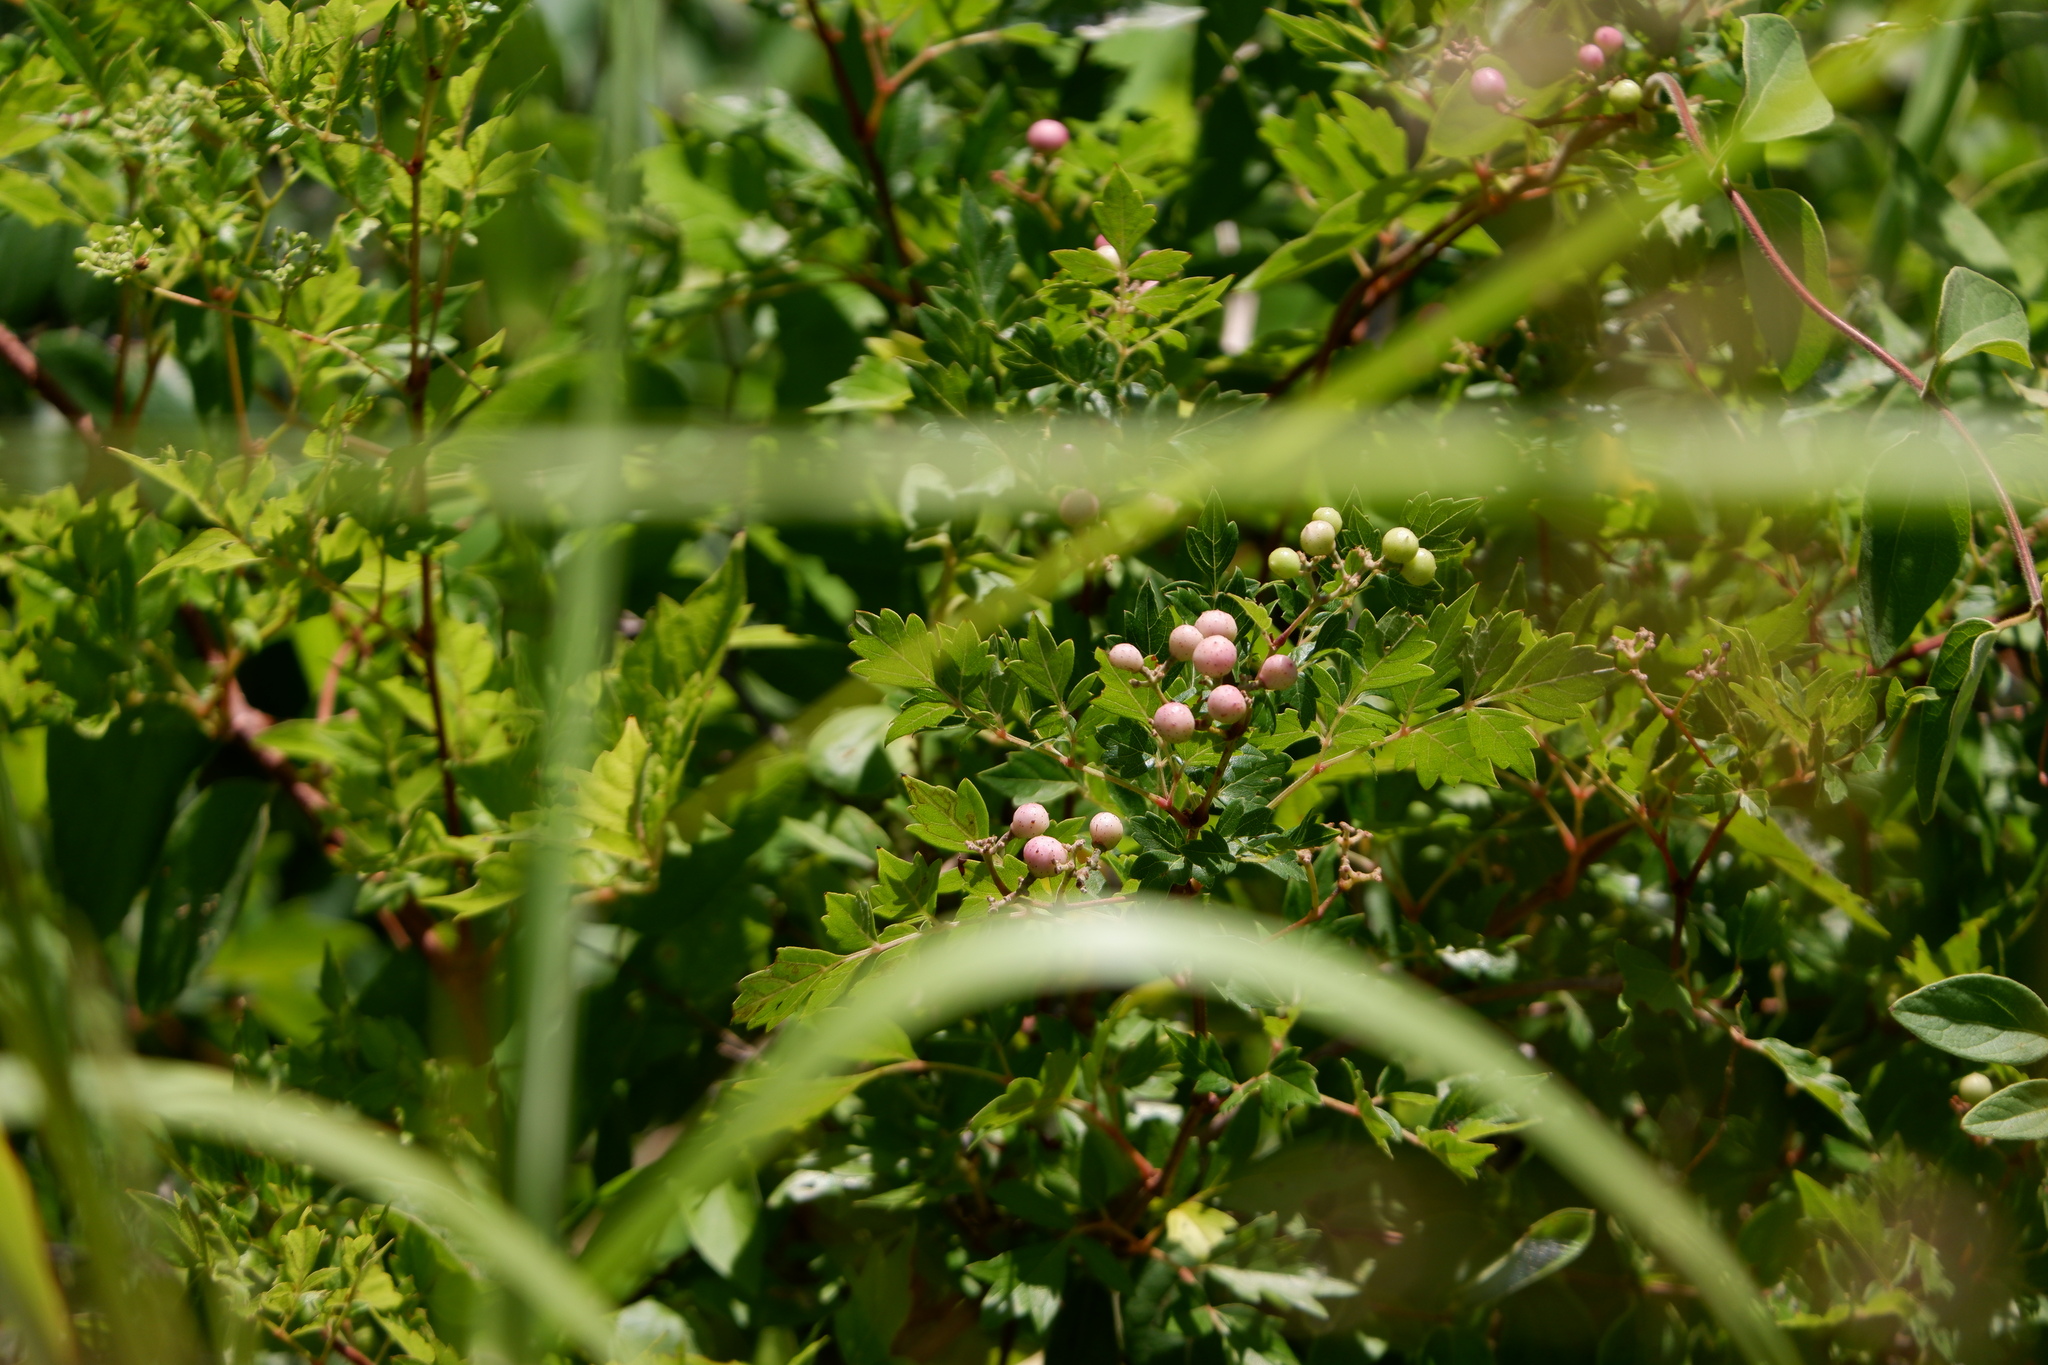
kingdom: Plantae
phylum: Tracheophyta
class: Magnoliopsida
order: Vitales
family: Vitaceae
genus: Nekemias
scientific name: Nekemias arborea
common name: Peppervine
